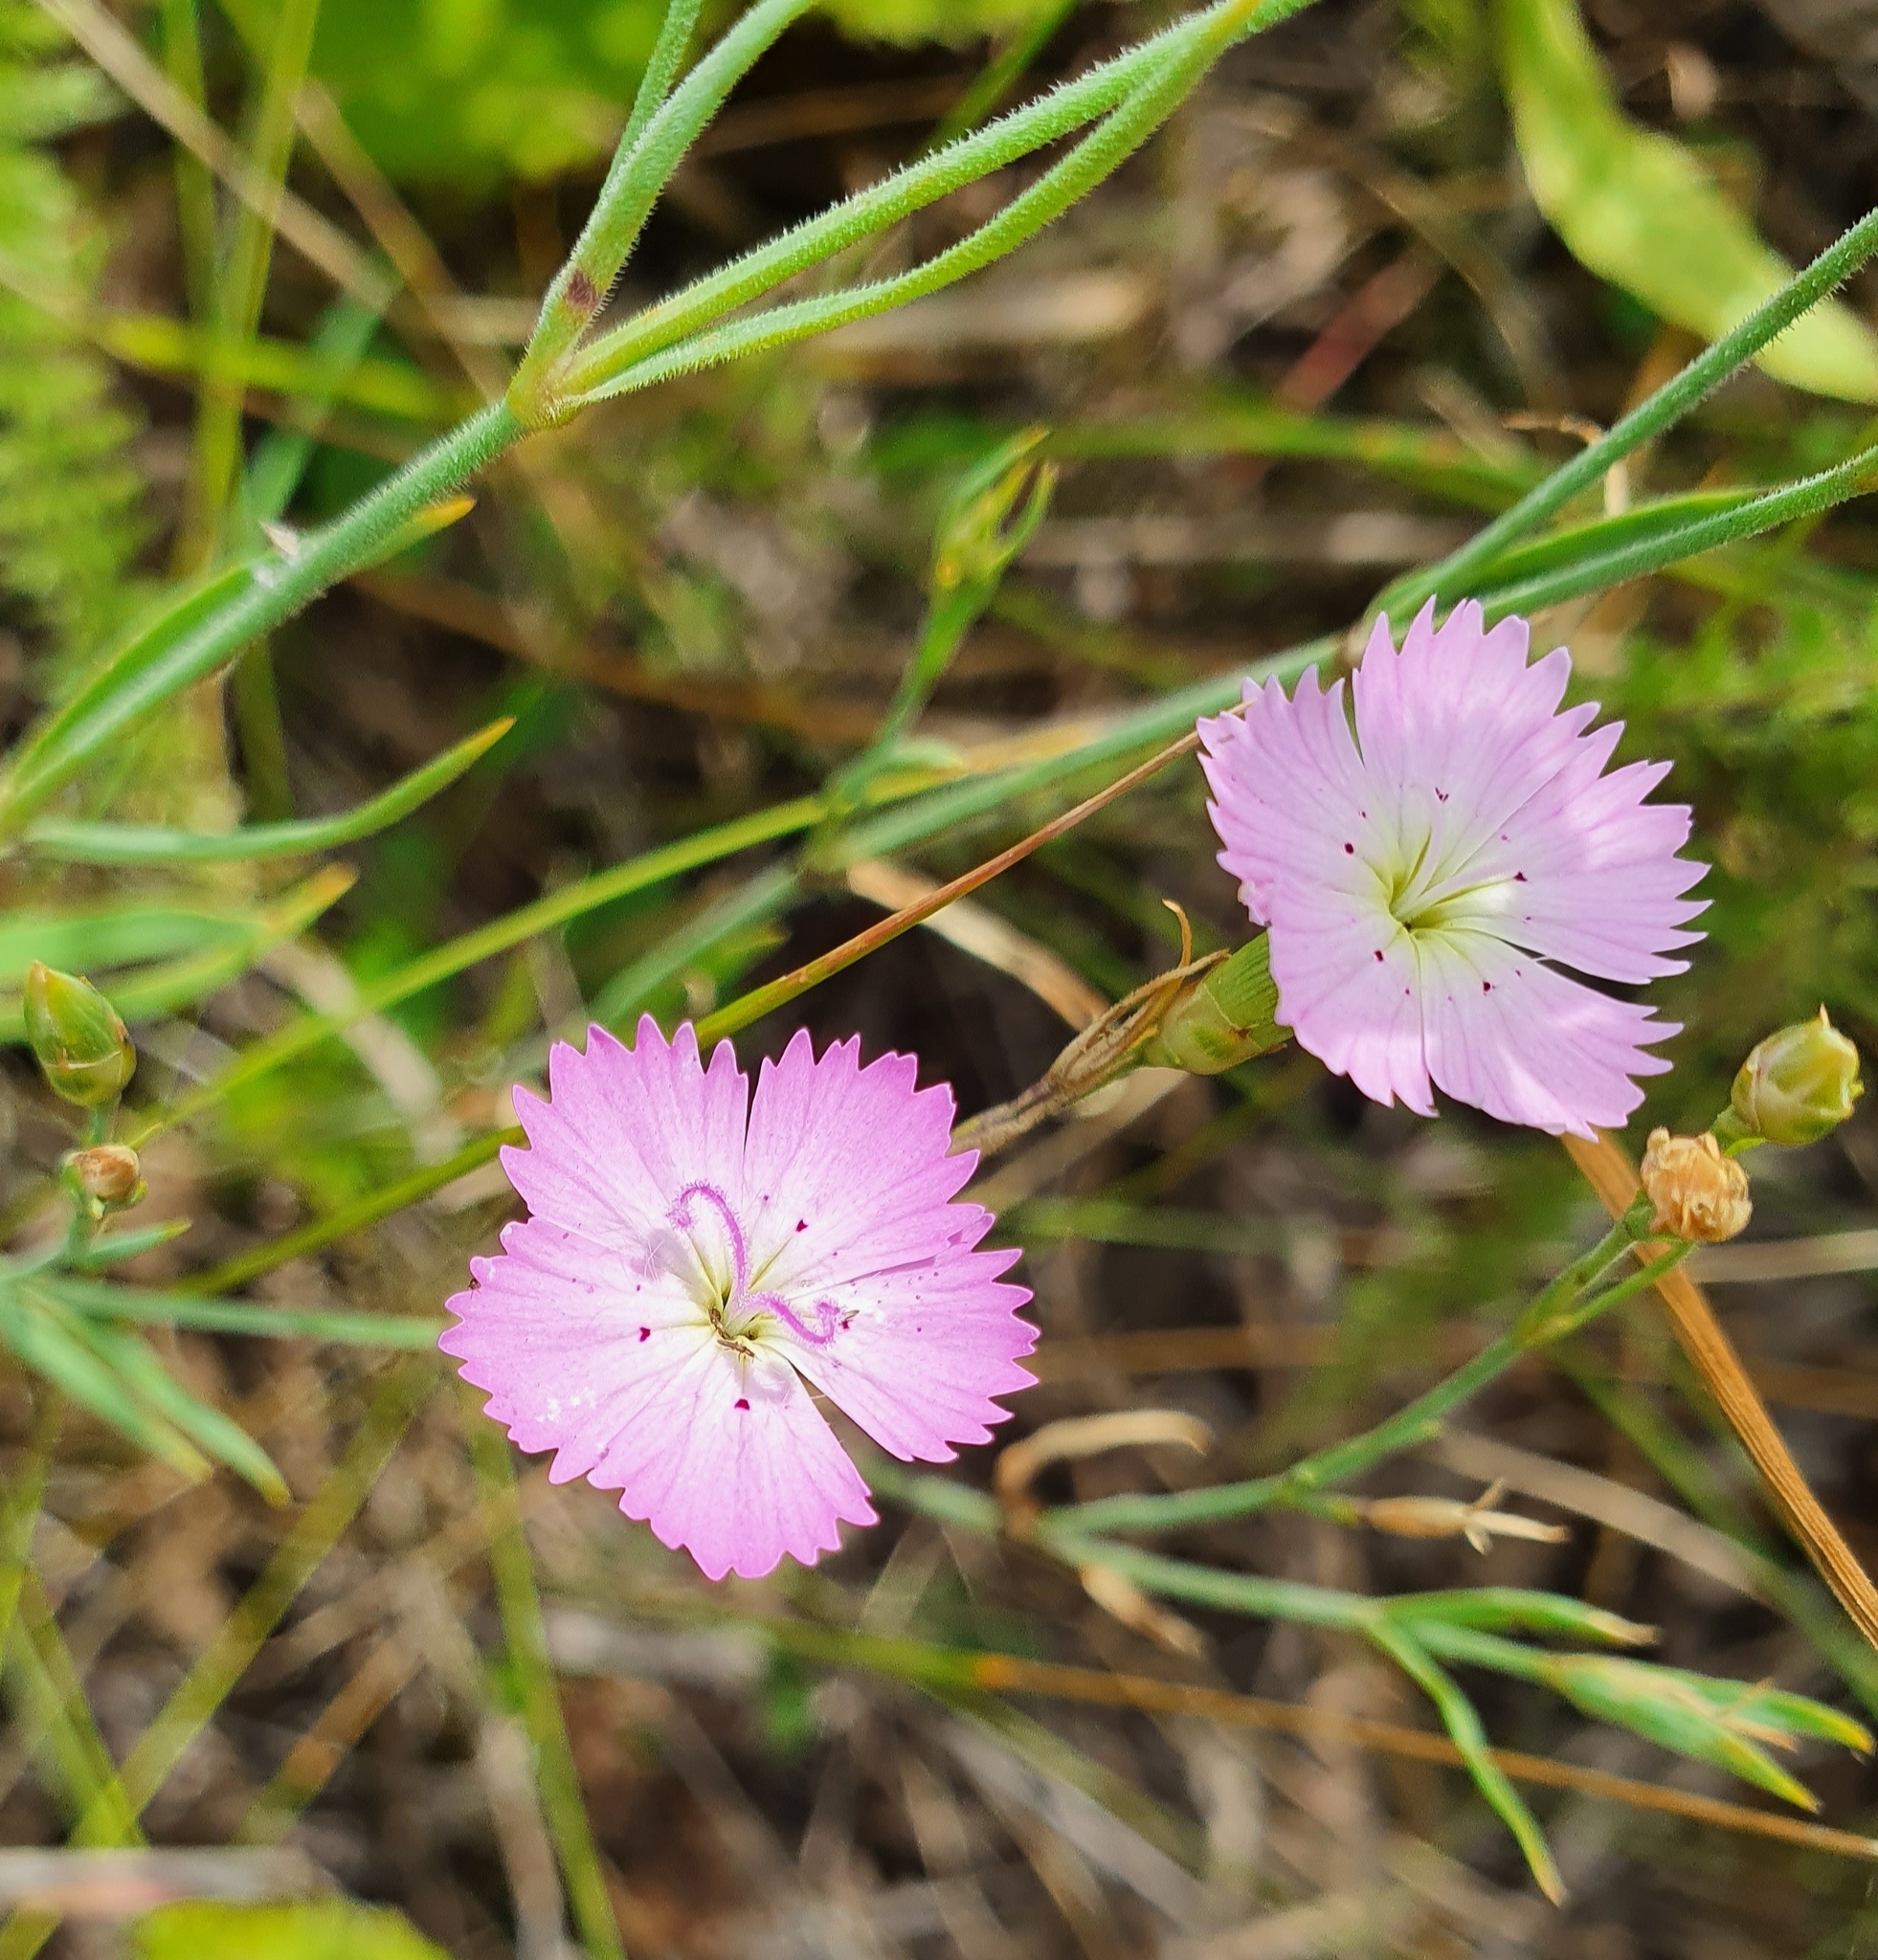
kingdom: Plantae
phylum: Tracheophyta
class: Magnoliopsida
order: Caryophyllales
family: Caryophyllaceae
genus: Dianthus
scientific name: Dianthus chinensis
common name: Rainbow pink
